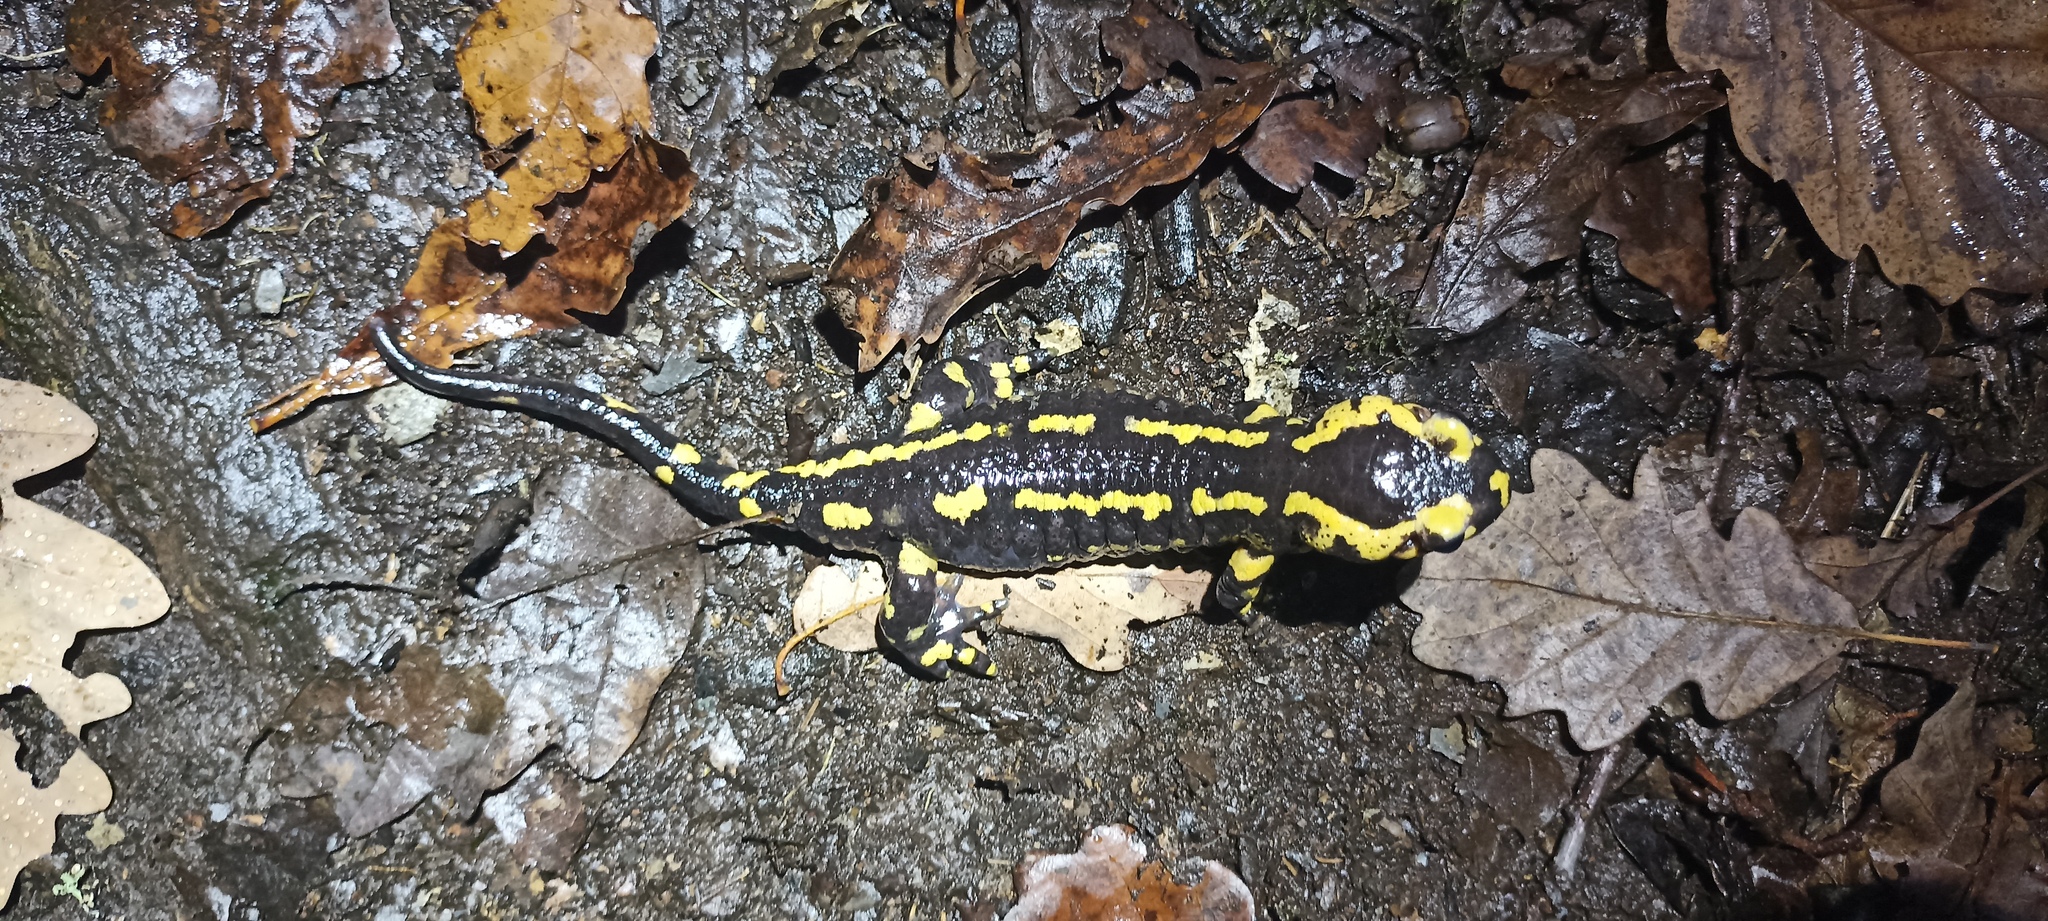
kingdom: Animalia
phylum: Chordata
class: Amphibia
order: Caudata
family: Salamandridae
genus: Salamandra
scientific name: Salamandra salamandra
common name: Fire salamander
